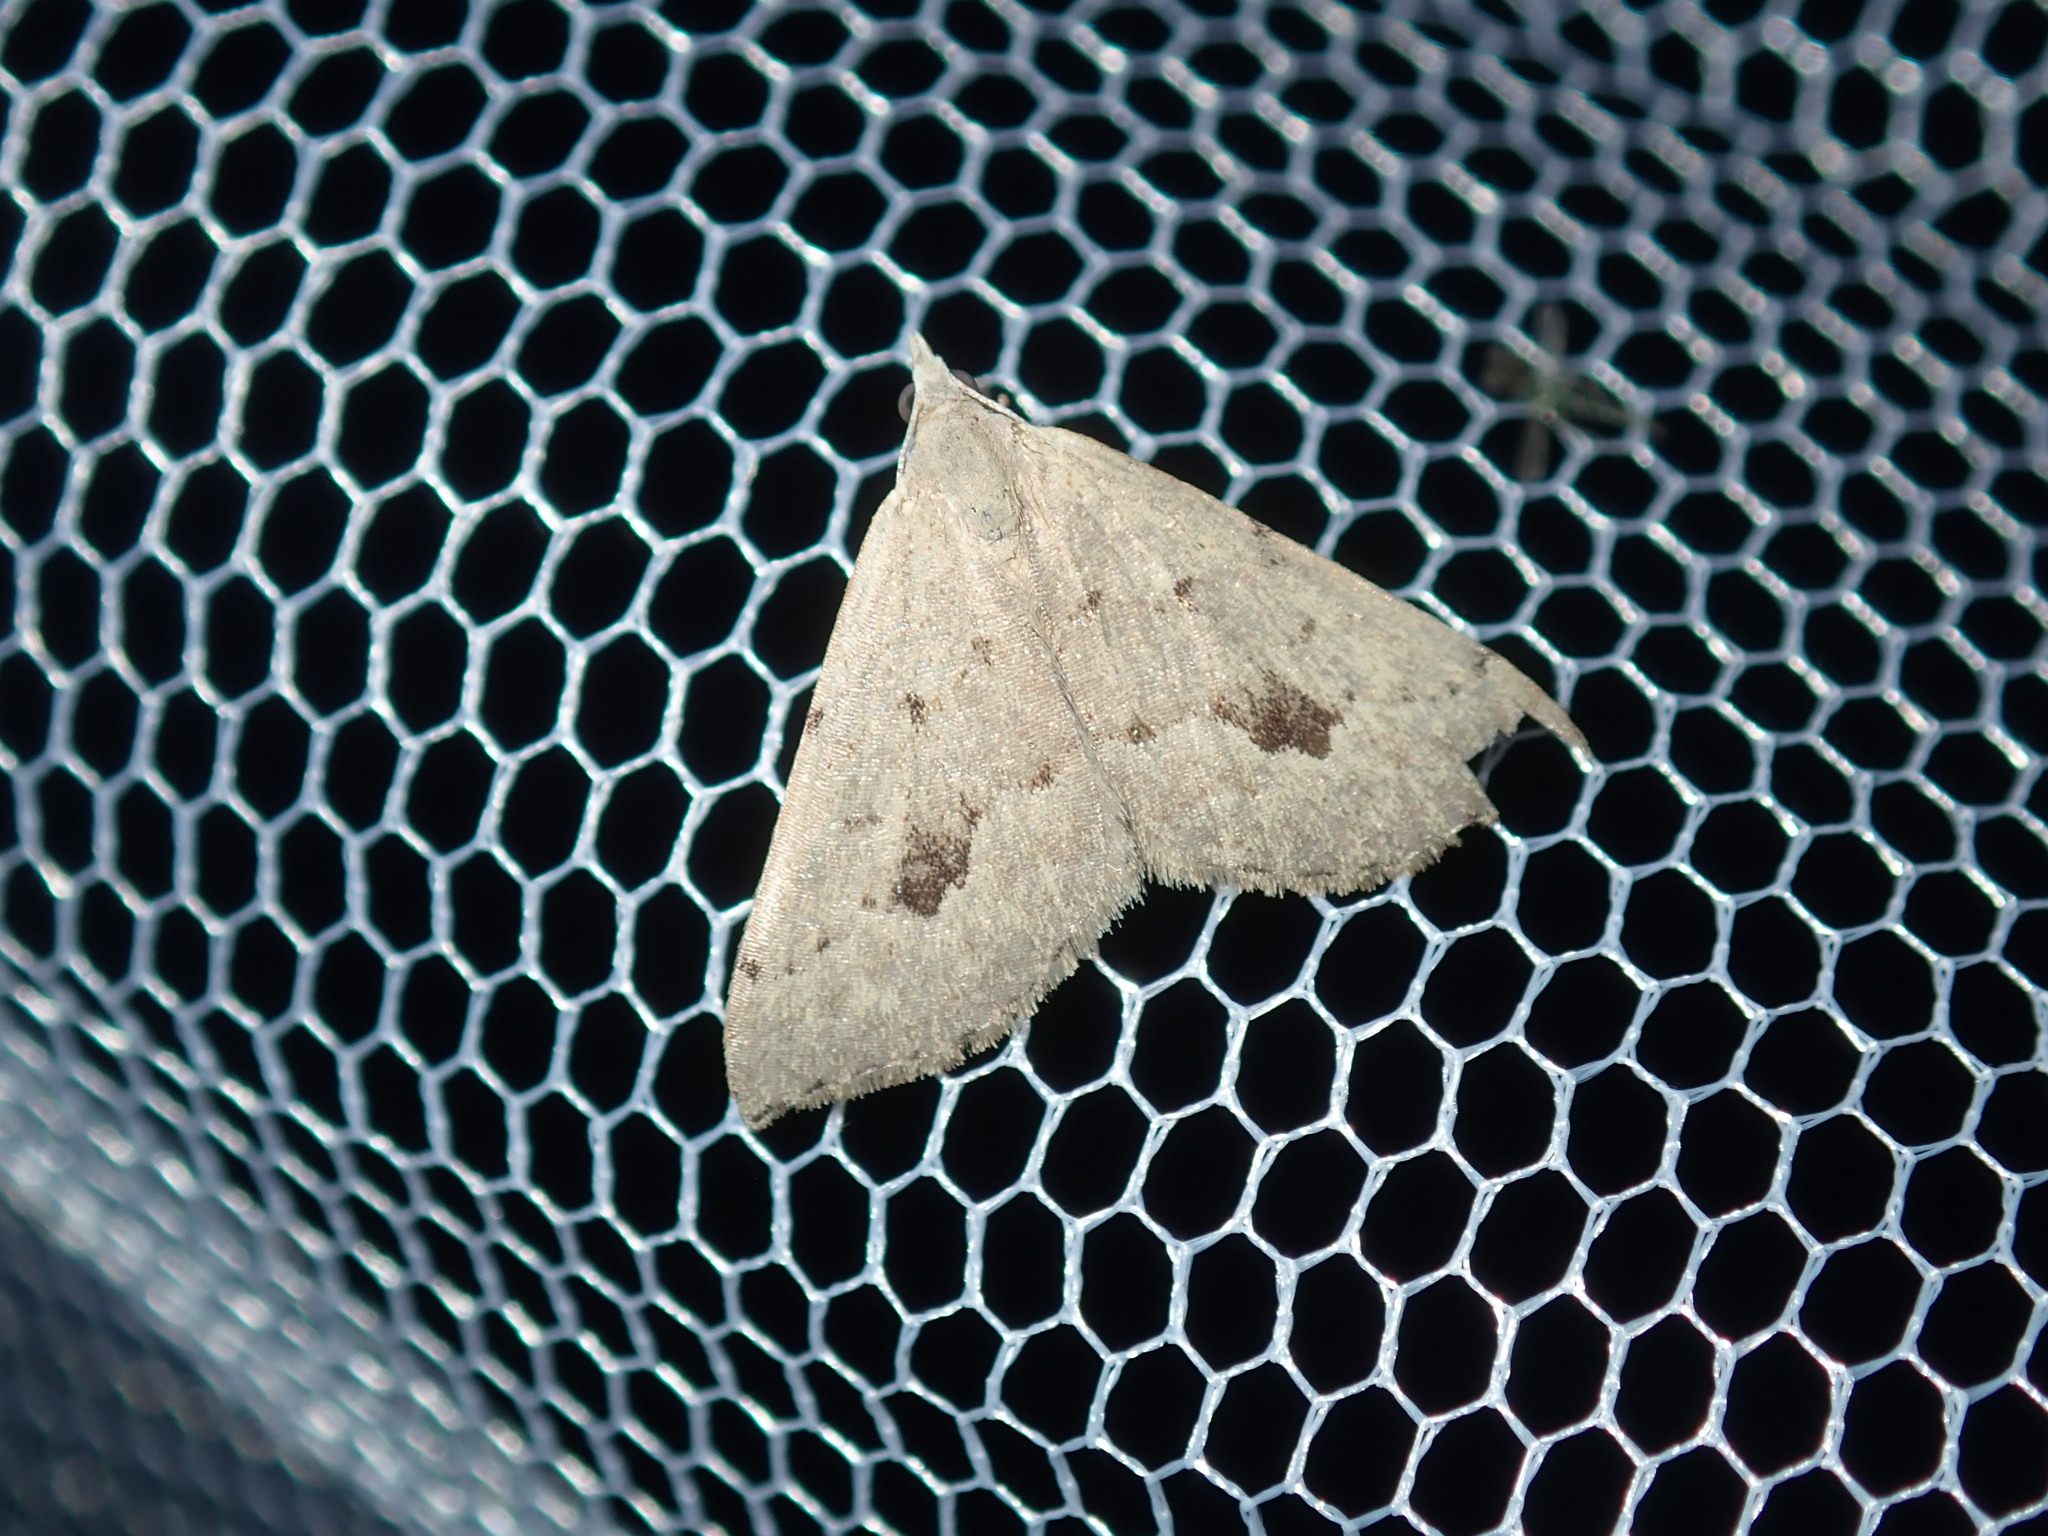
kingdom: Animalia
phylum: Arthropoda
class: Insecta
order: Lepidoptera
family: Geometridae
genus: Dichromodes
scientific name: Dichromodes estigmaria
